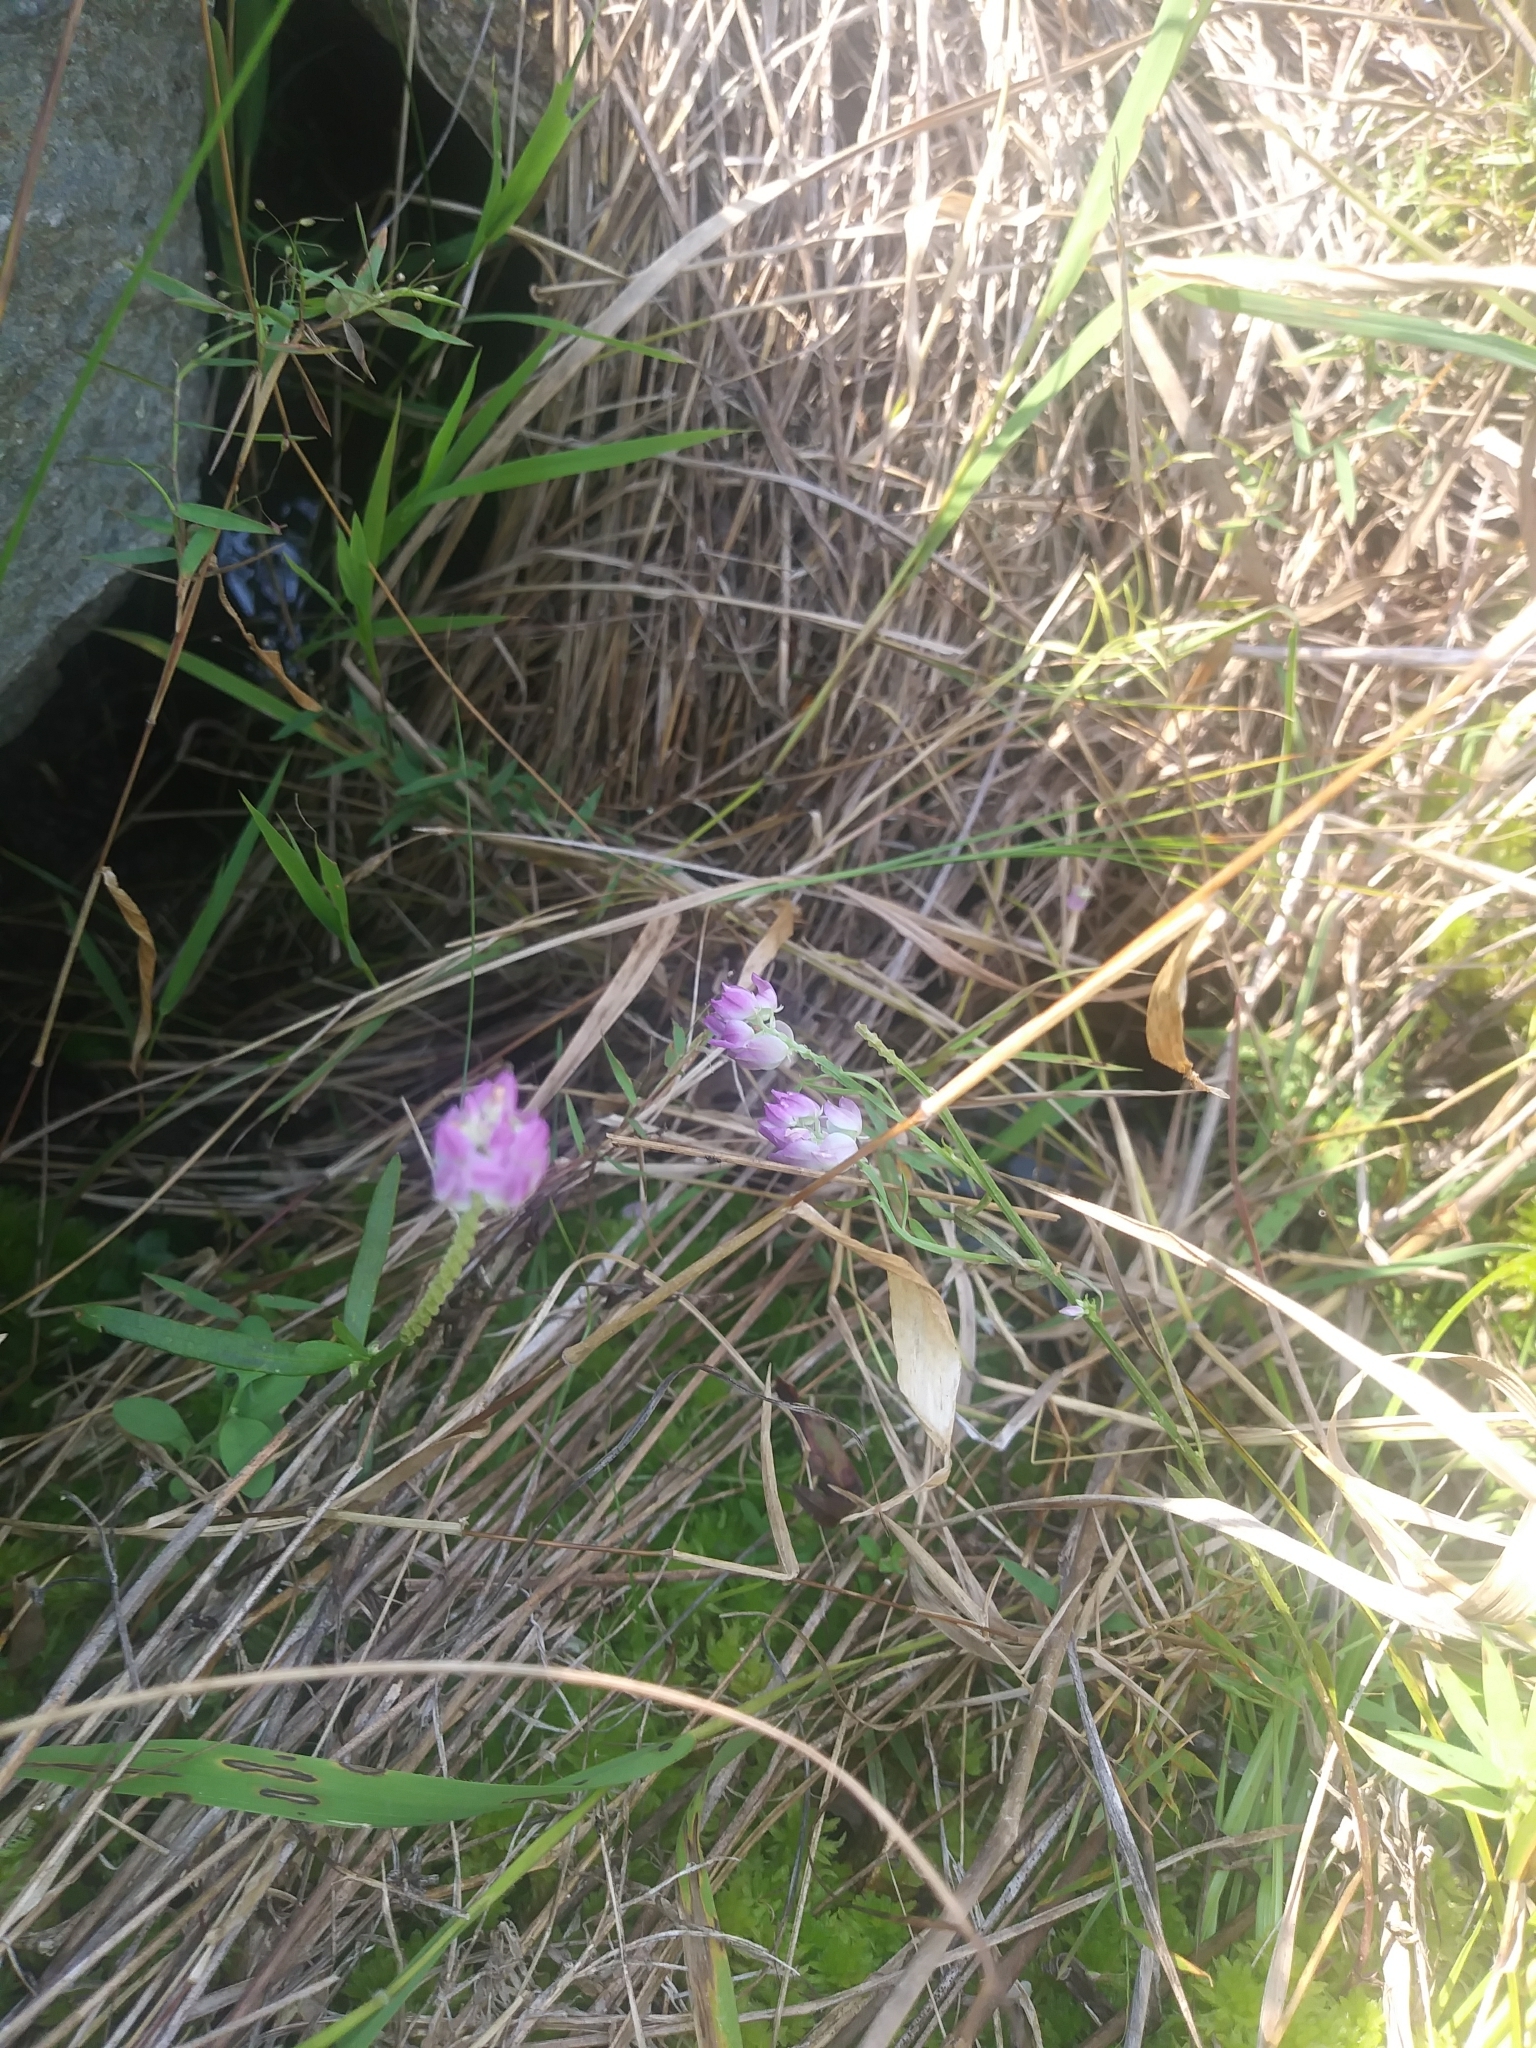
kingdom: Plantae
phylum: Tracheophyta
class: Magnoliopsida
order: Fabales
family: Polygalaceae
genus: Polygala
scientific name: Polygala sanguinea
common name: Blood milkwort
